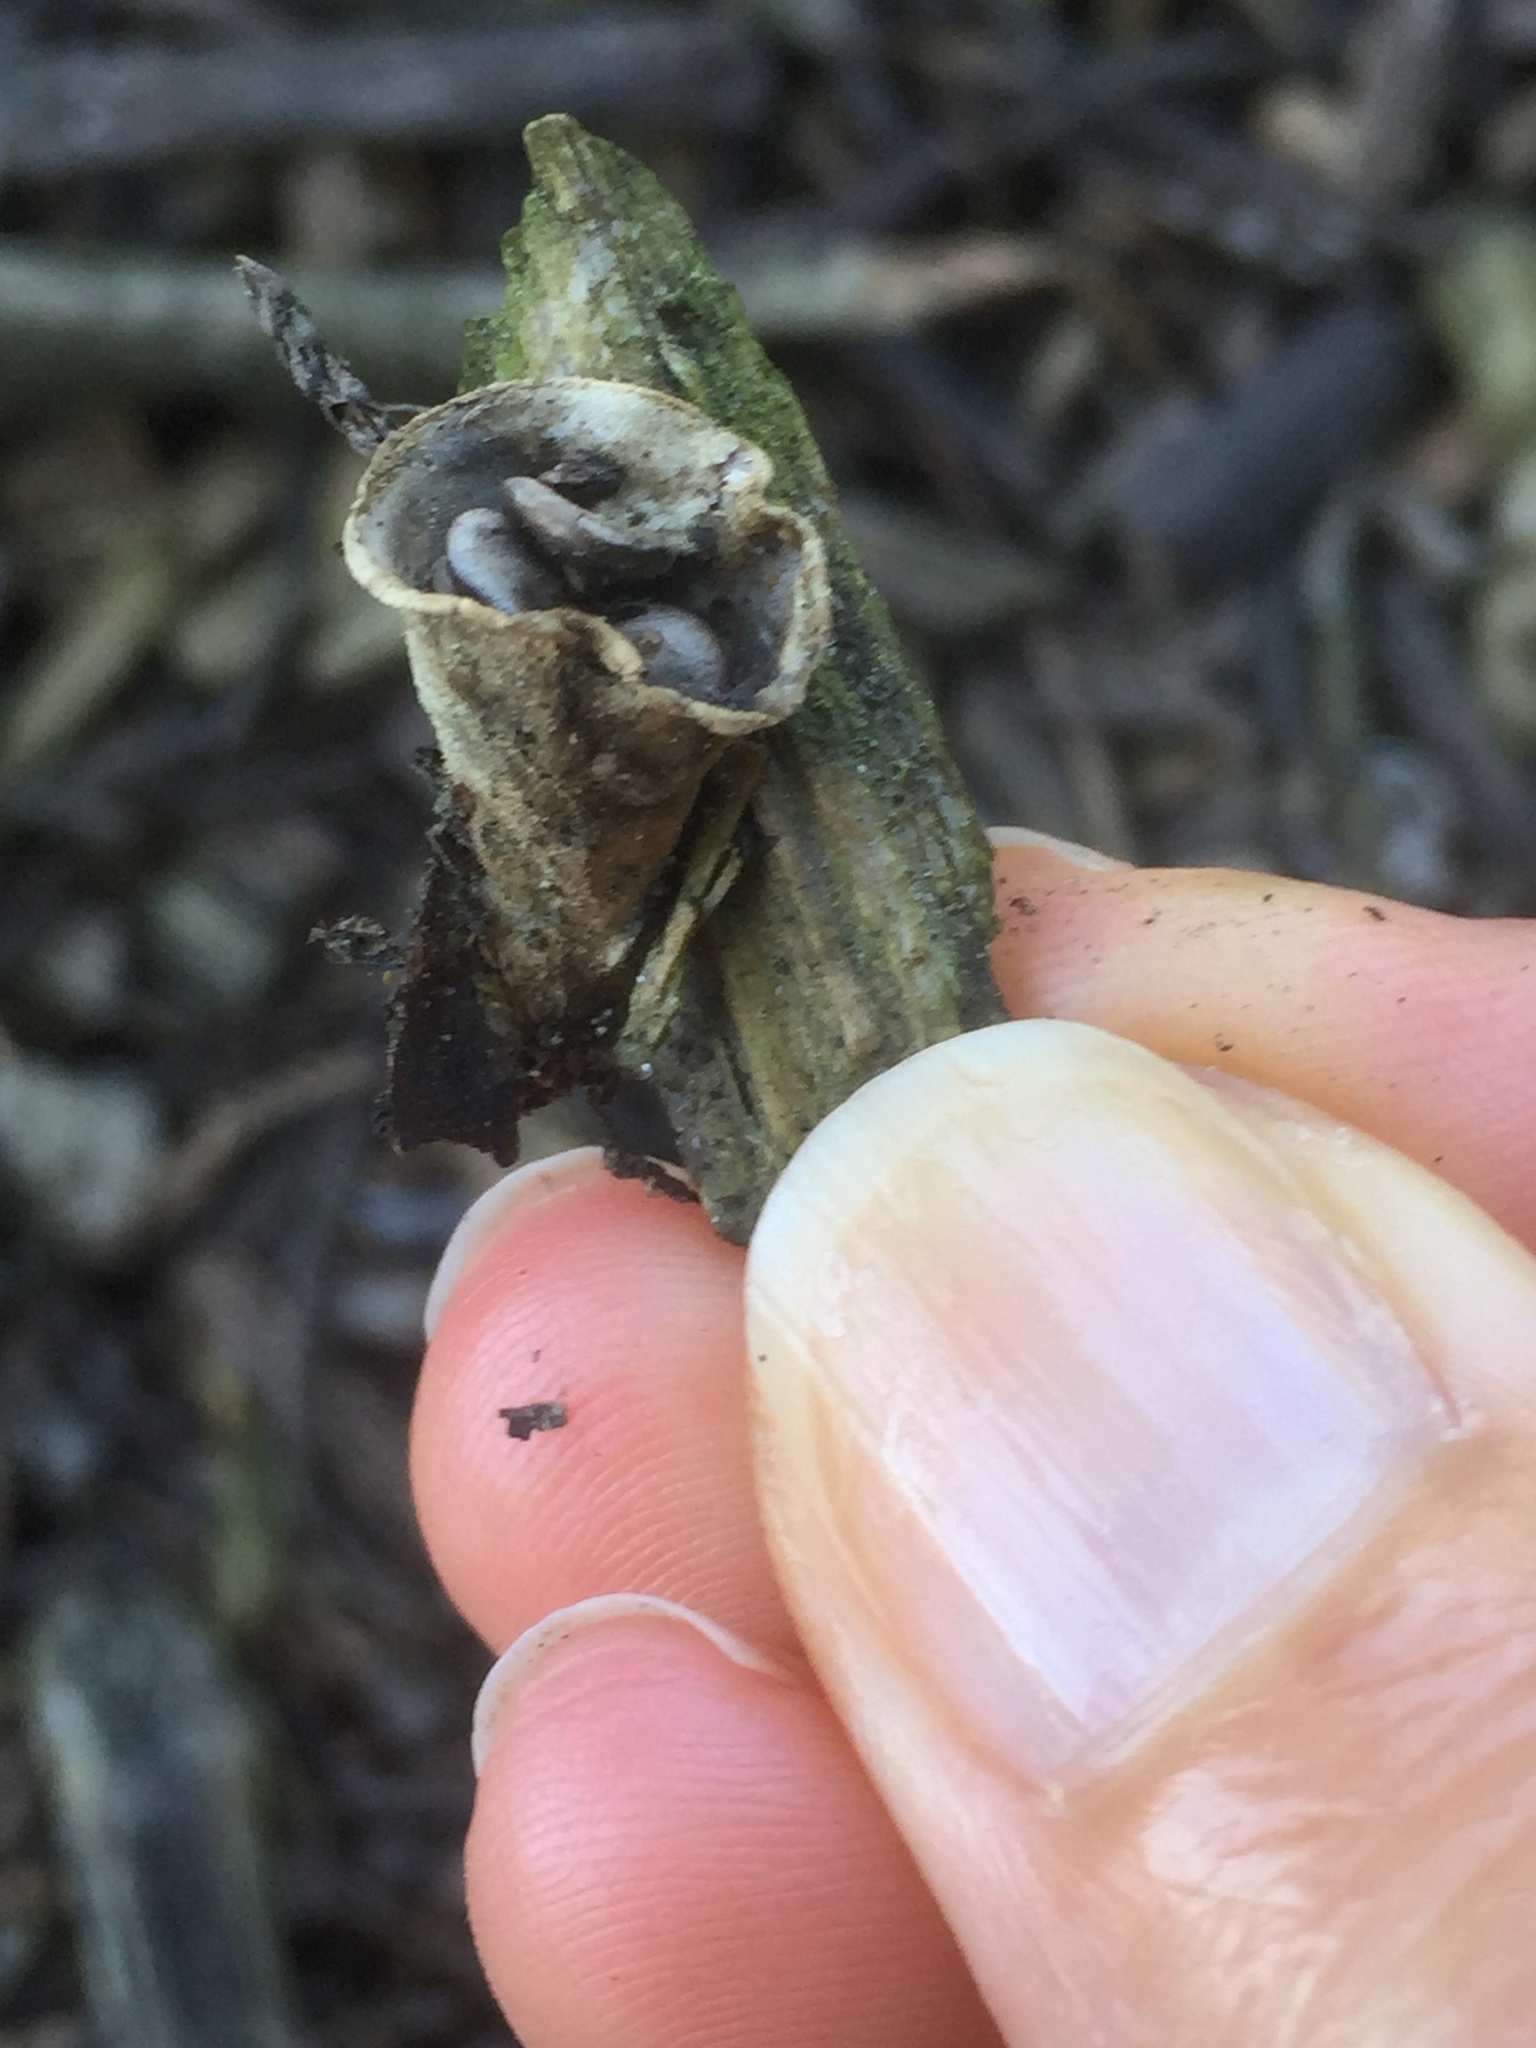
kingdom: Fungi
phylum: Basidiomycota
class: Agaricomycetes
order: Agaricales
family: Agaricaceae
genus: Cyathus
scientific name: Cyathus olla
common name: Field bird's nest
